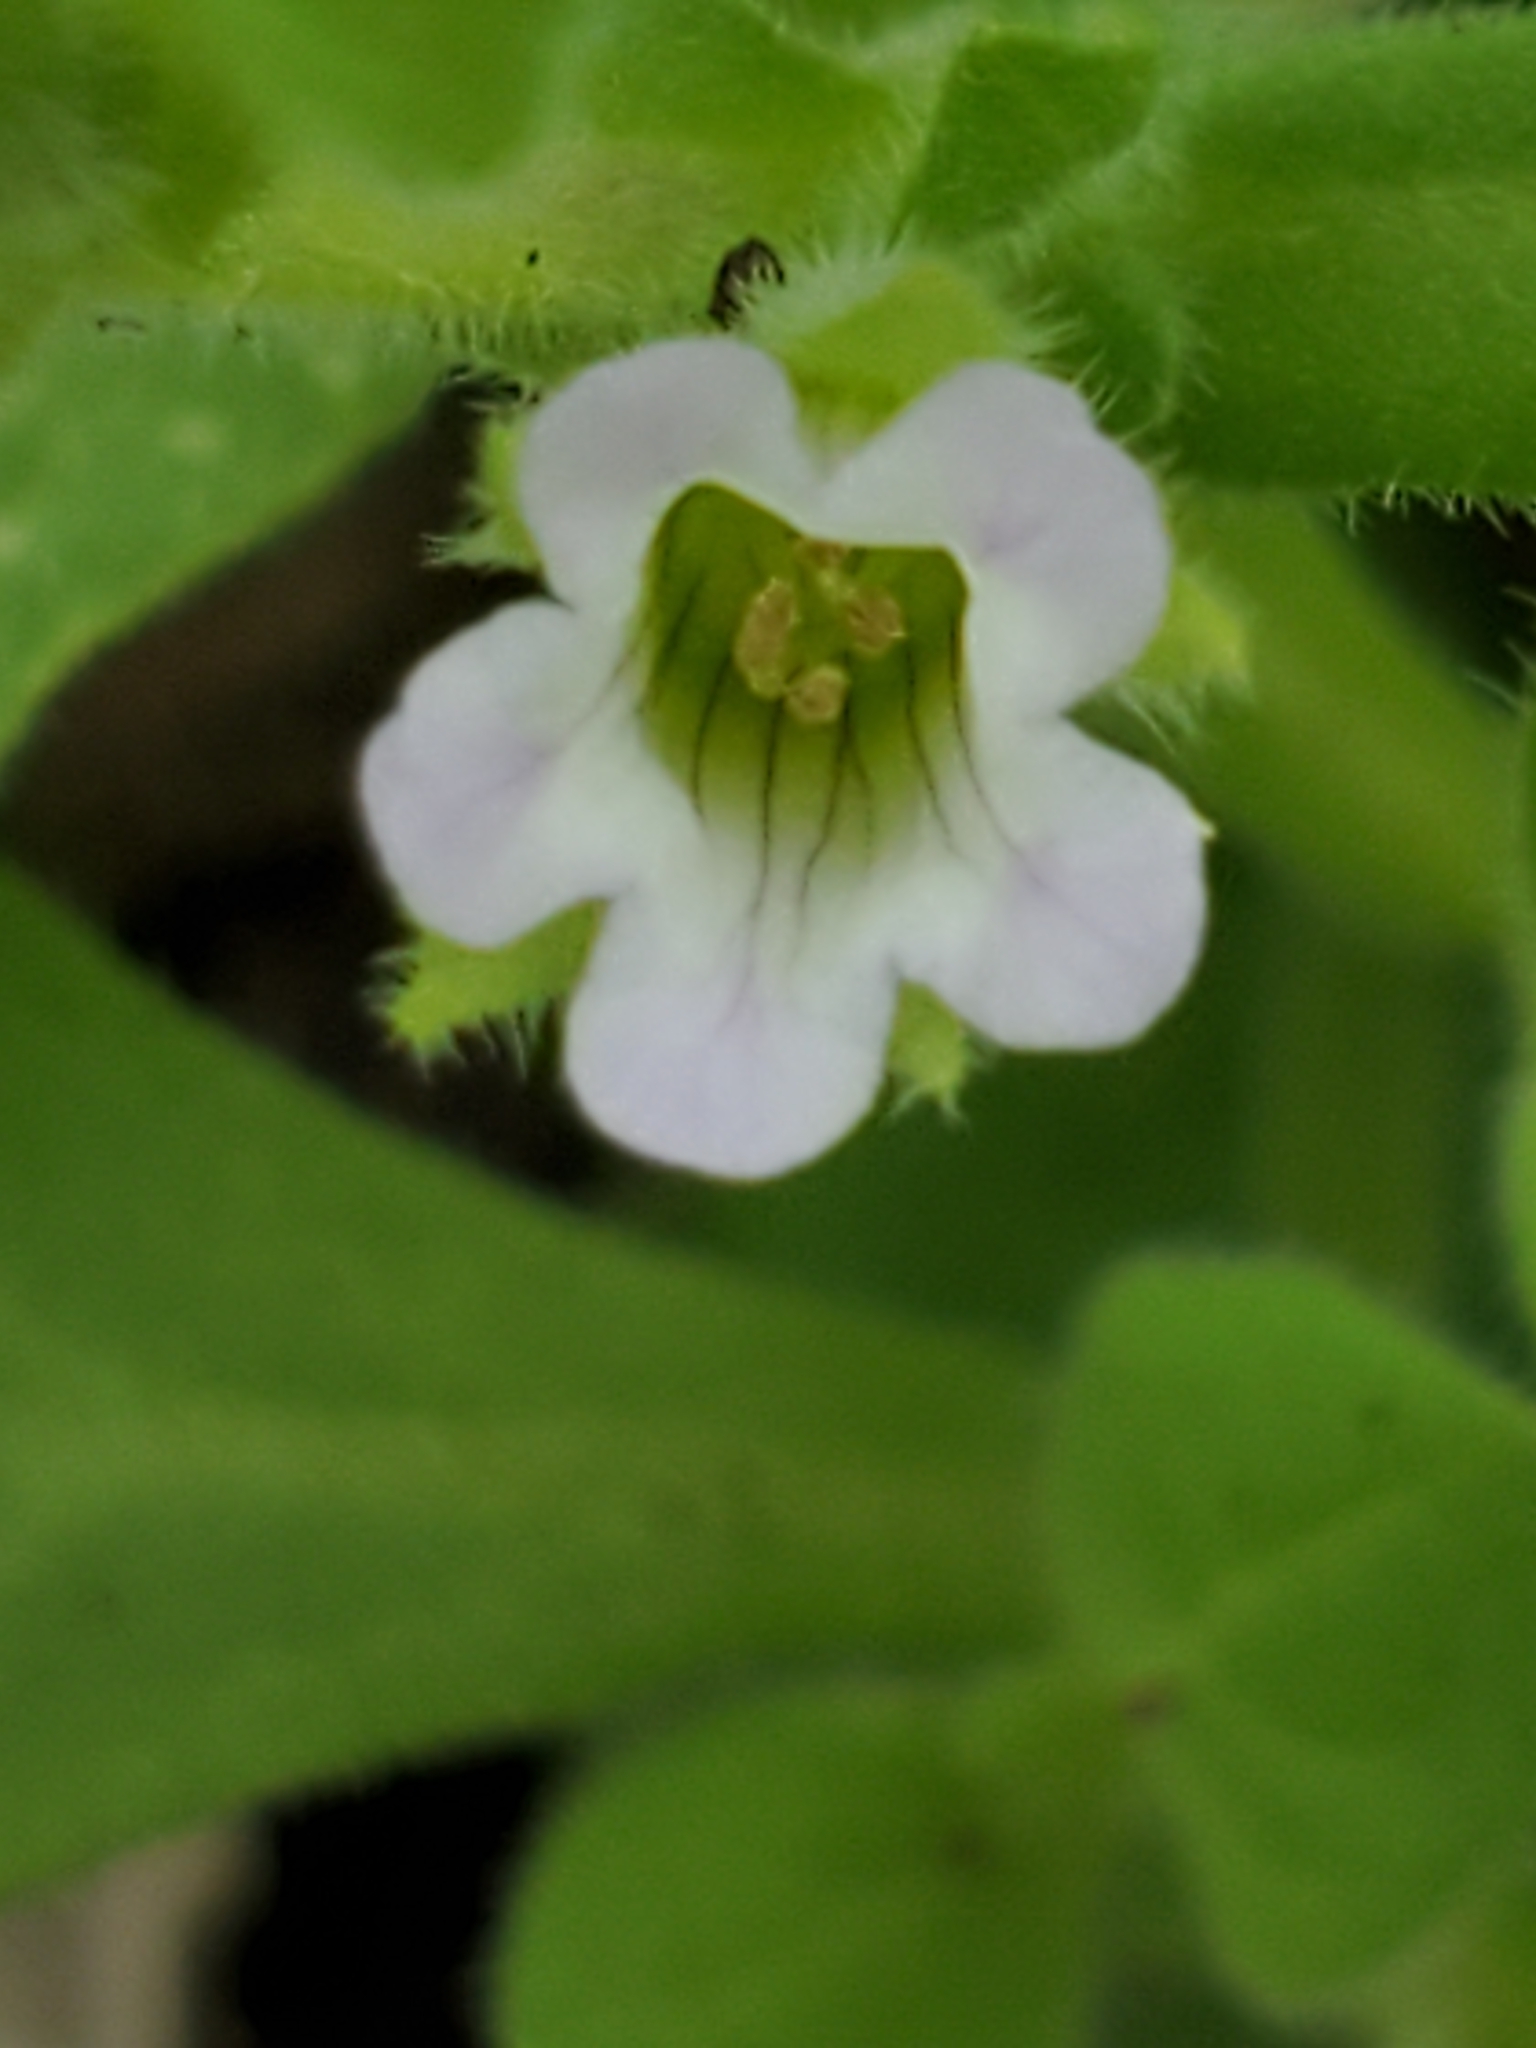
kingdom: Plantae
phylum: Tracheophyta
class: Magnoliopsida
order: Boraginales
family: Namaceae
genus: Nama
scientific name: Nama jamaicensis
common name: Jamaicanweed
